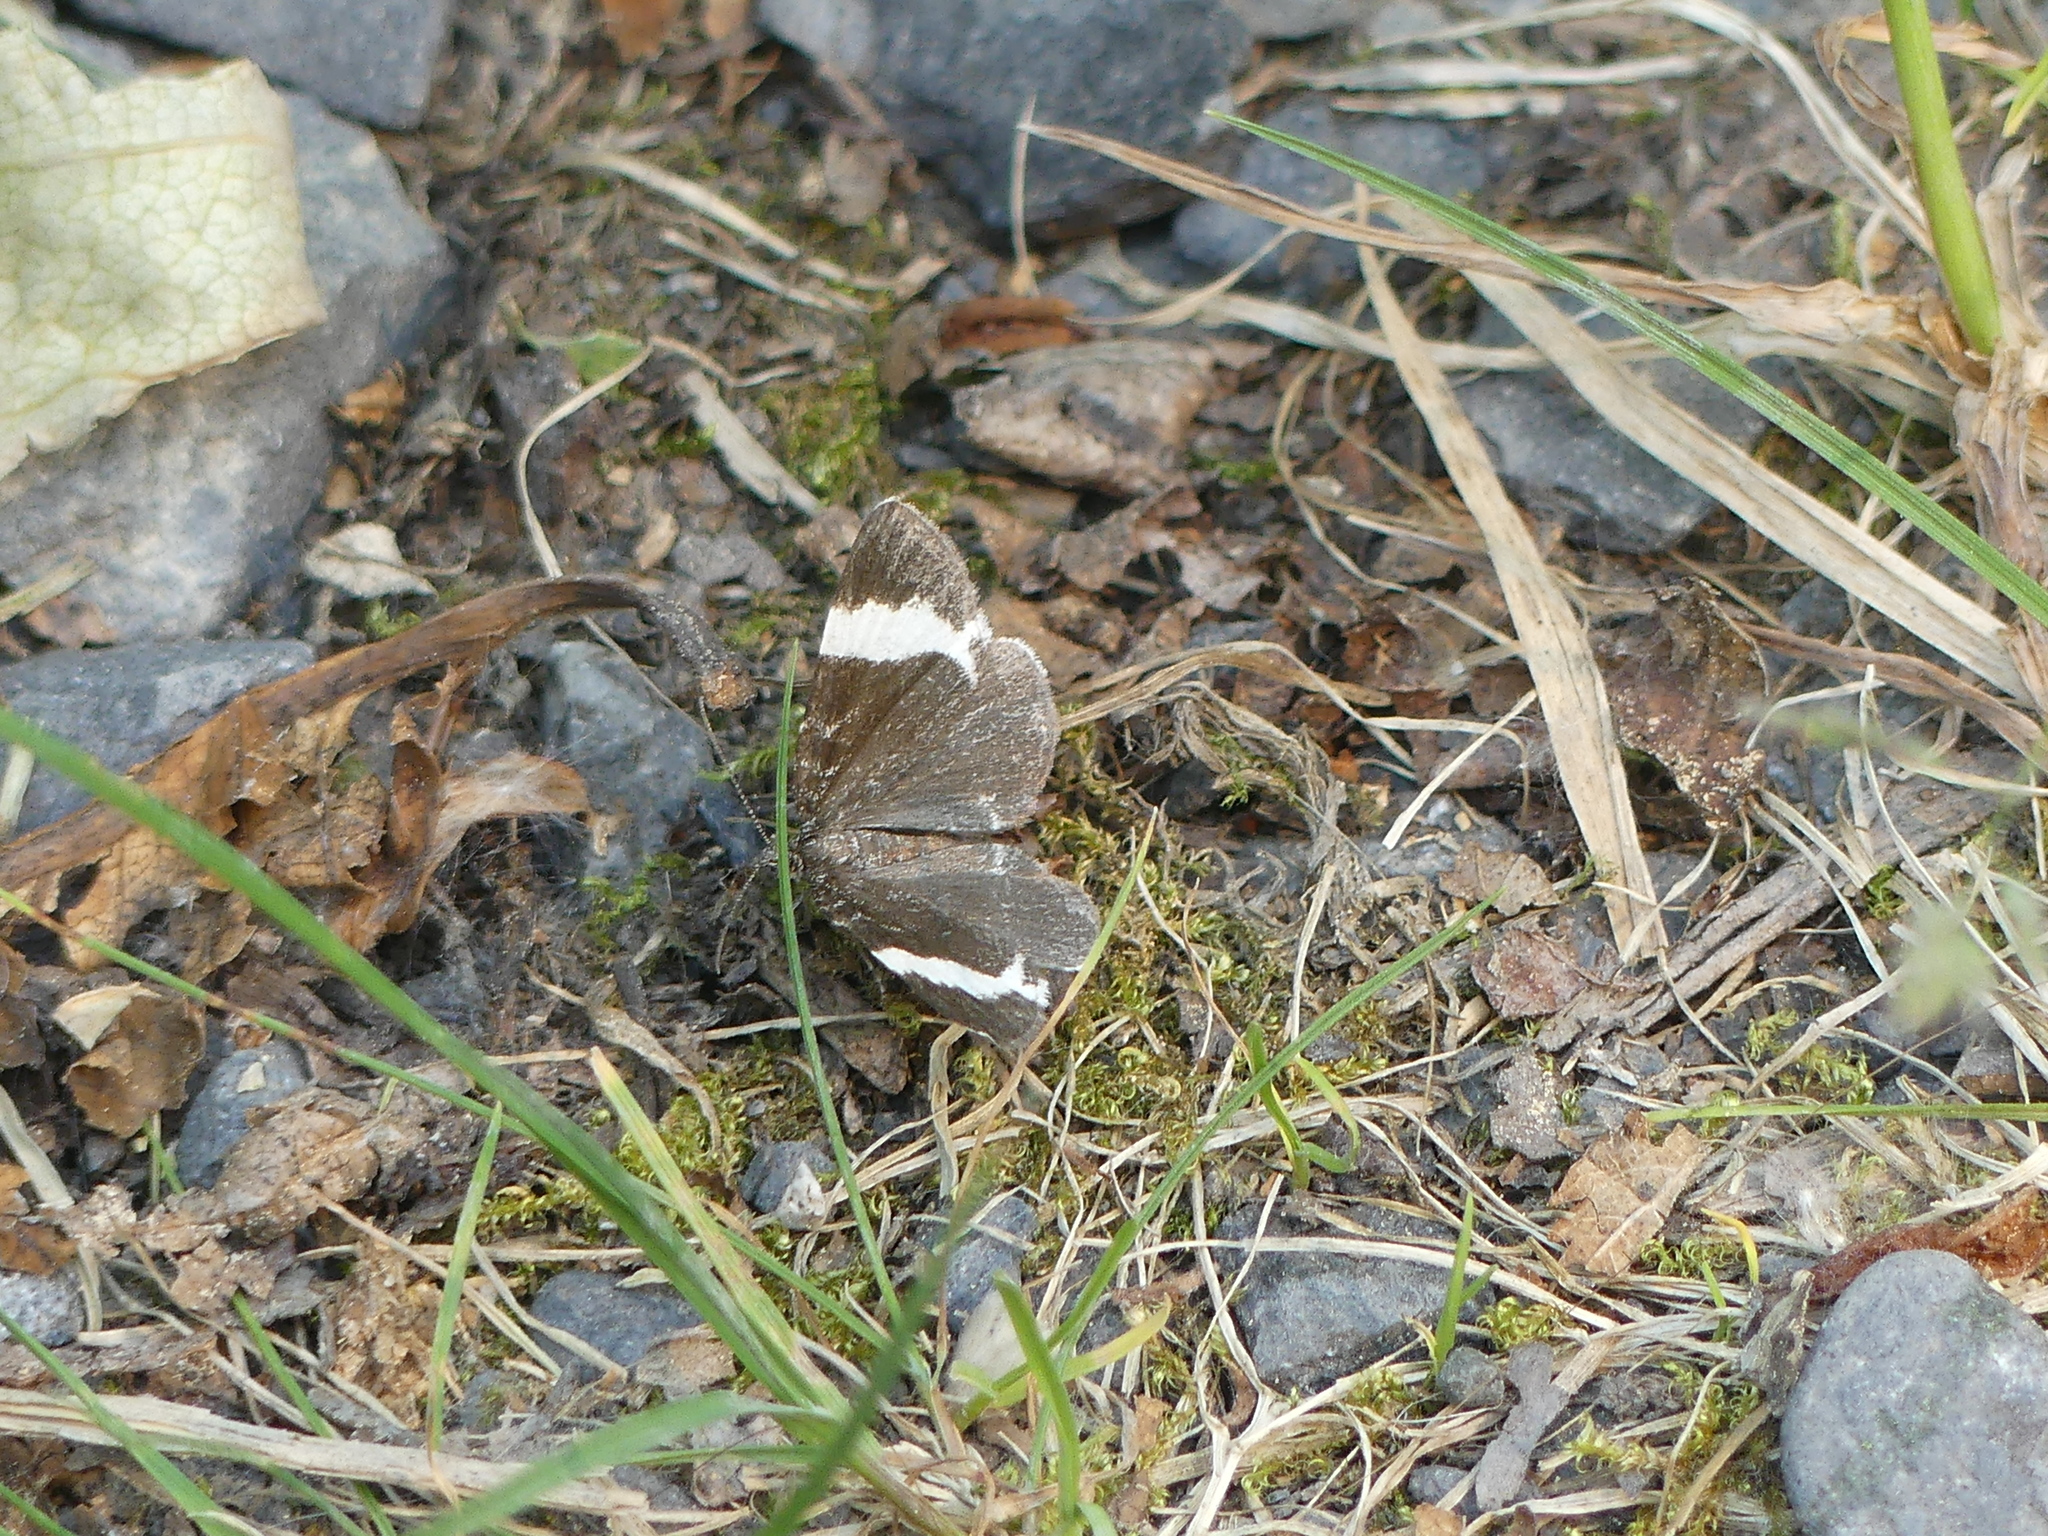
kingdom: Animalia
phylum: Arthropoda
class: Insecta
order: Lepidoptera
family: Geometridae
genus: Trichodezia
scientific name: Trichodezia albovittata
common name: White striped black
